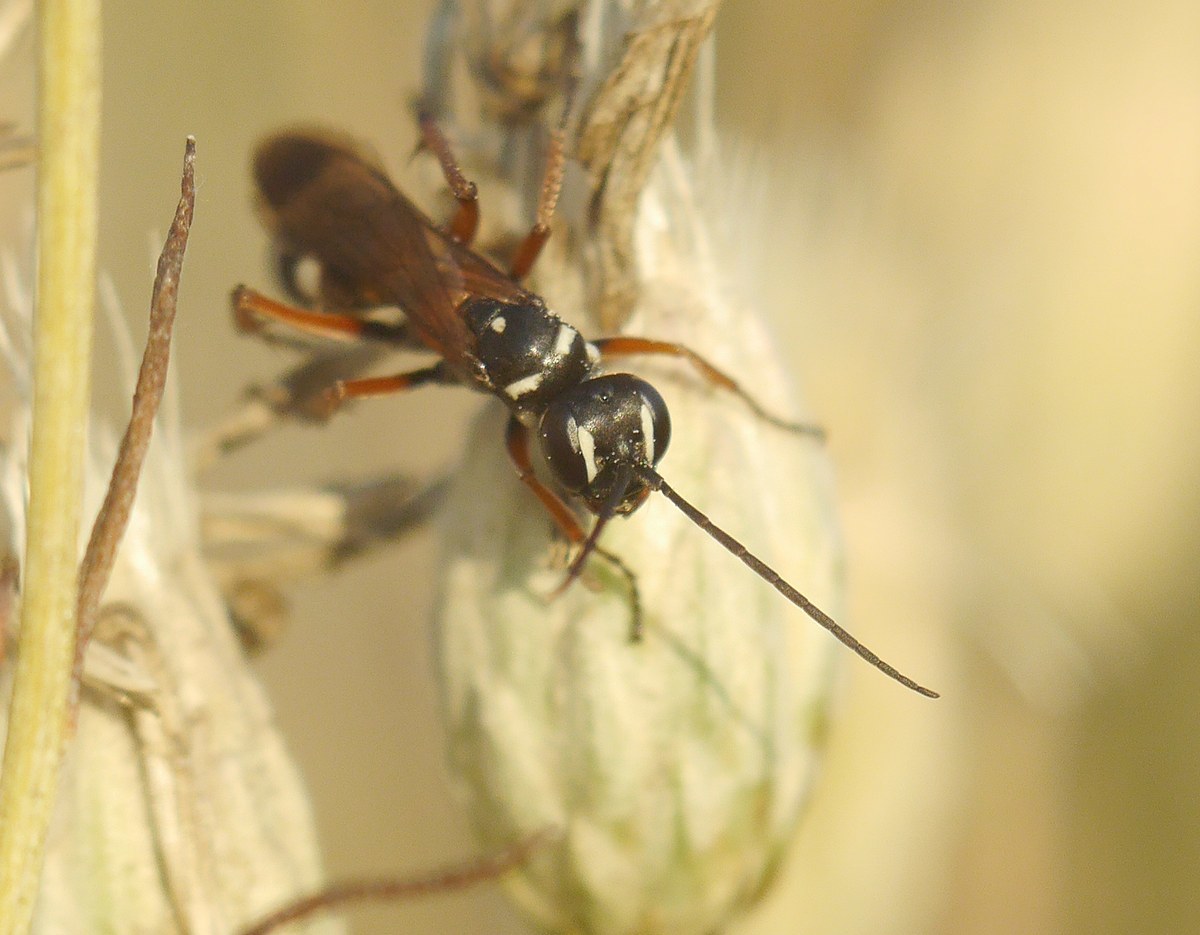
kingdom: Animalia
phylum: Arthropoda
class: Insecta
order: Hymenoptera
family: Pompilidae
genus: Cryptocheilus
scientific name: Cryptocheilus fabricii
